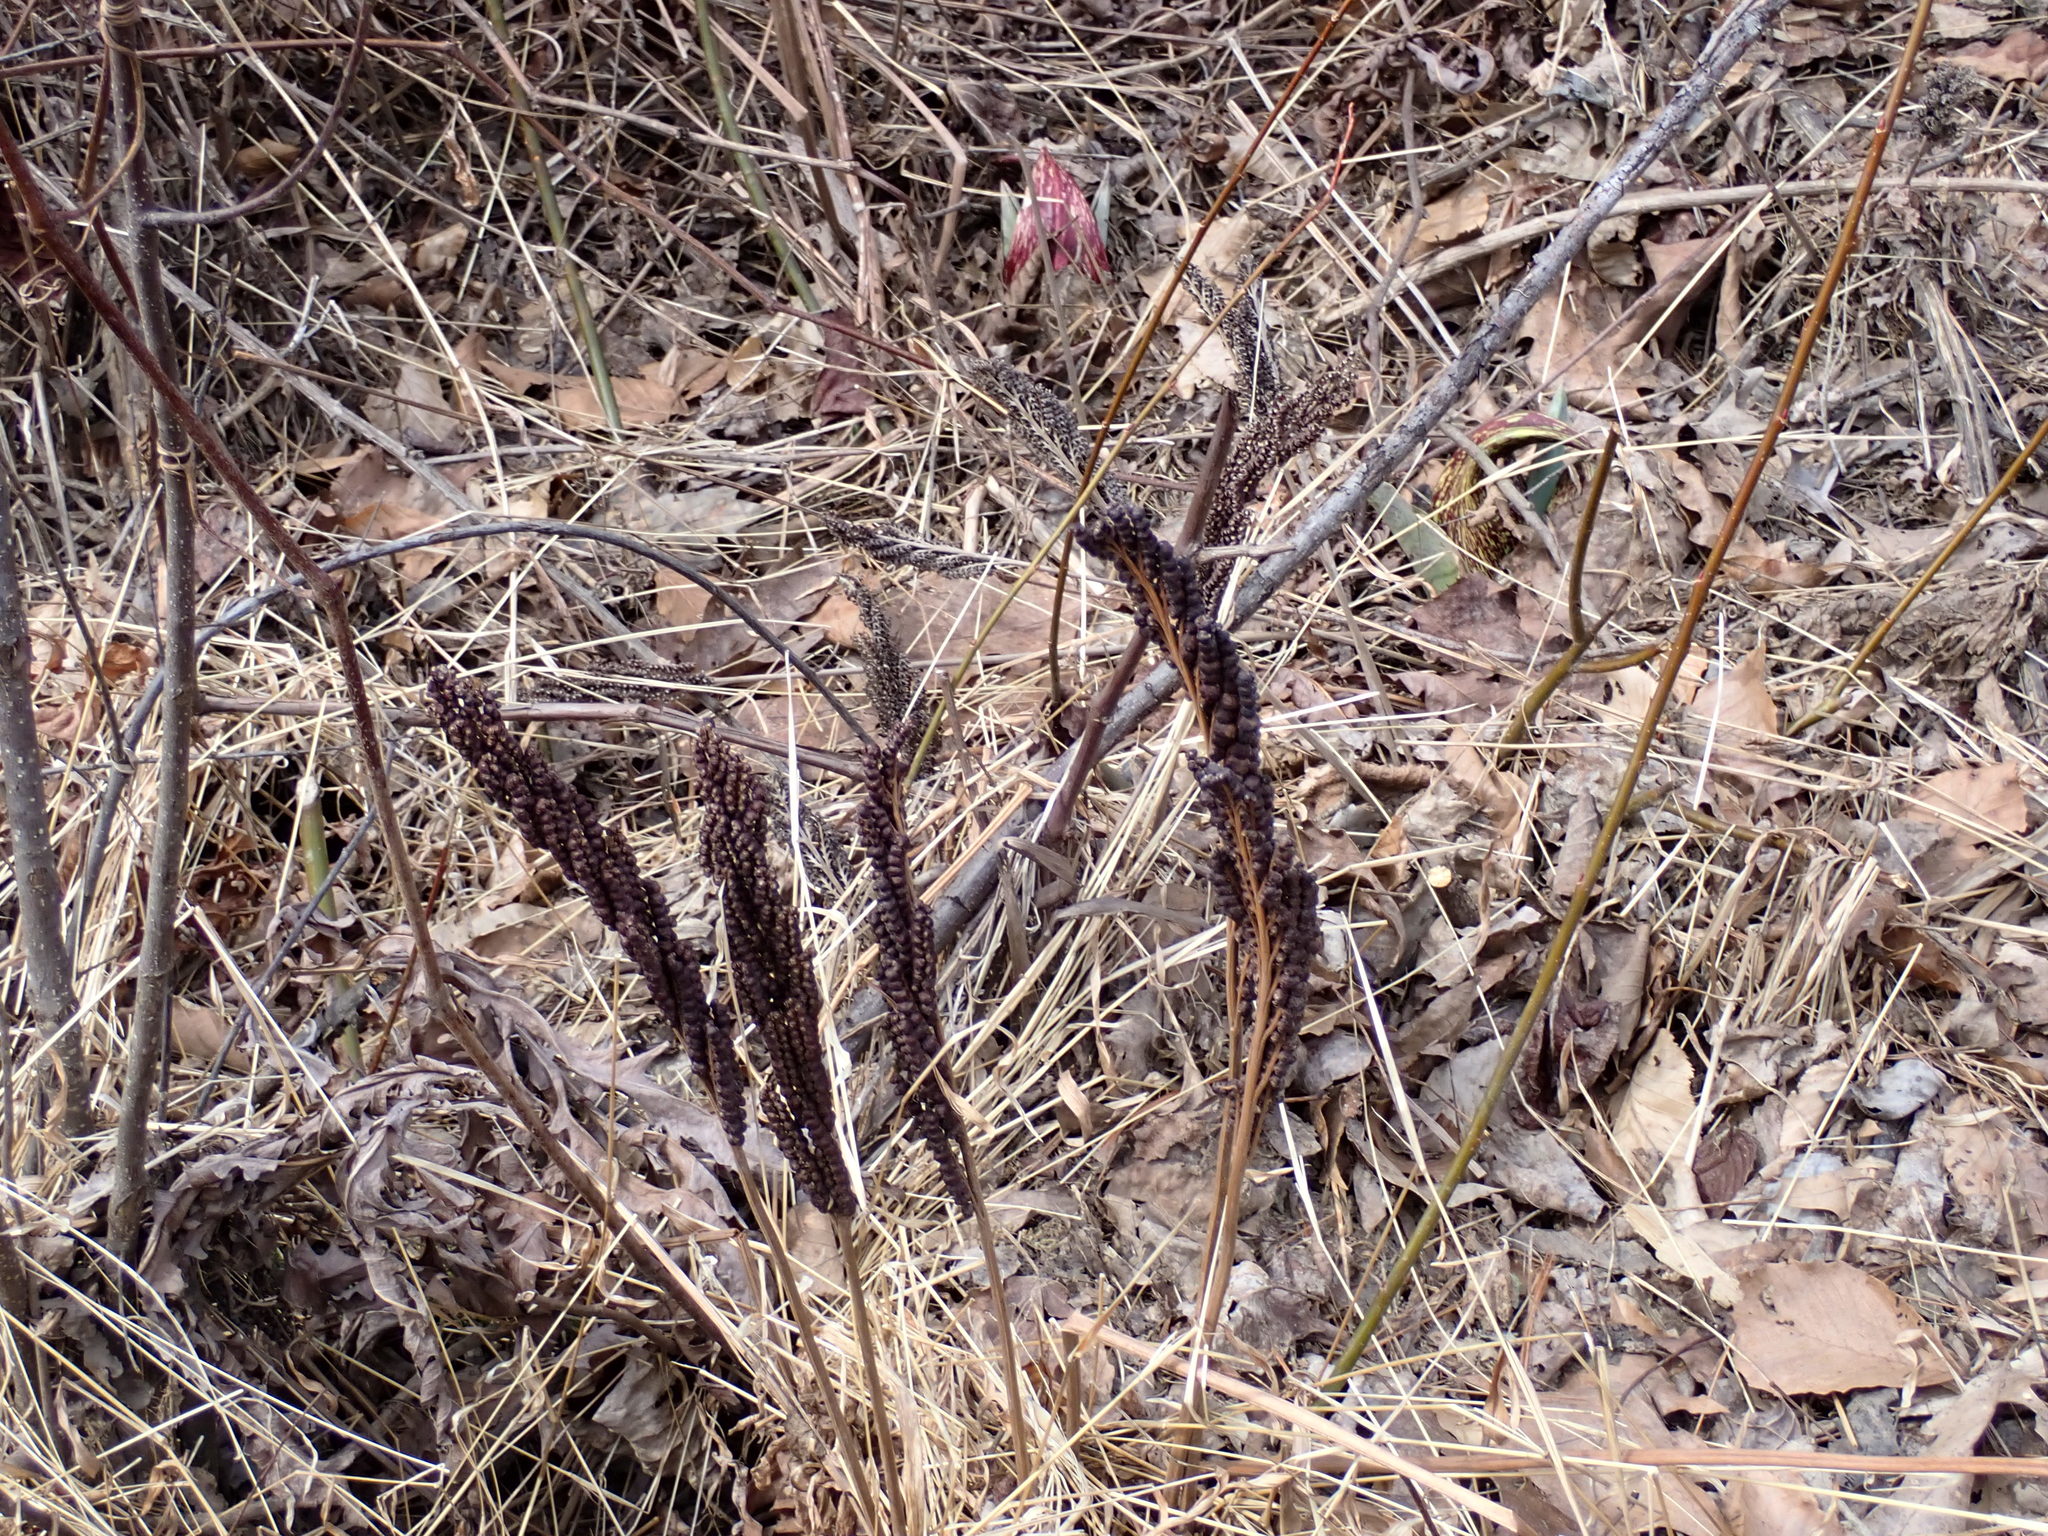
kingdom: Plantae
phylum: Tracheophyta
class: Polypodiopsida
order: Polypodiales
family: Onocleaceae
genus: Onoclea
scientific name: Onoclea sensibilis
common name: Sensitive fern
